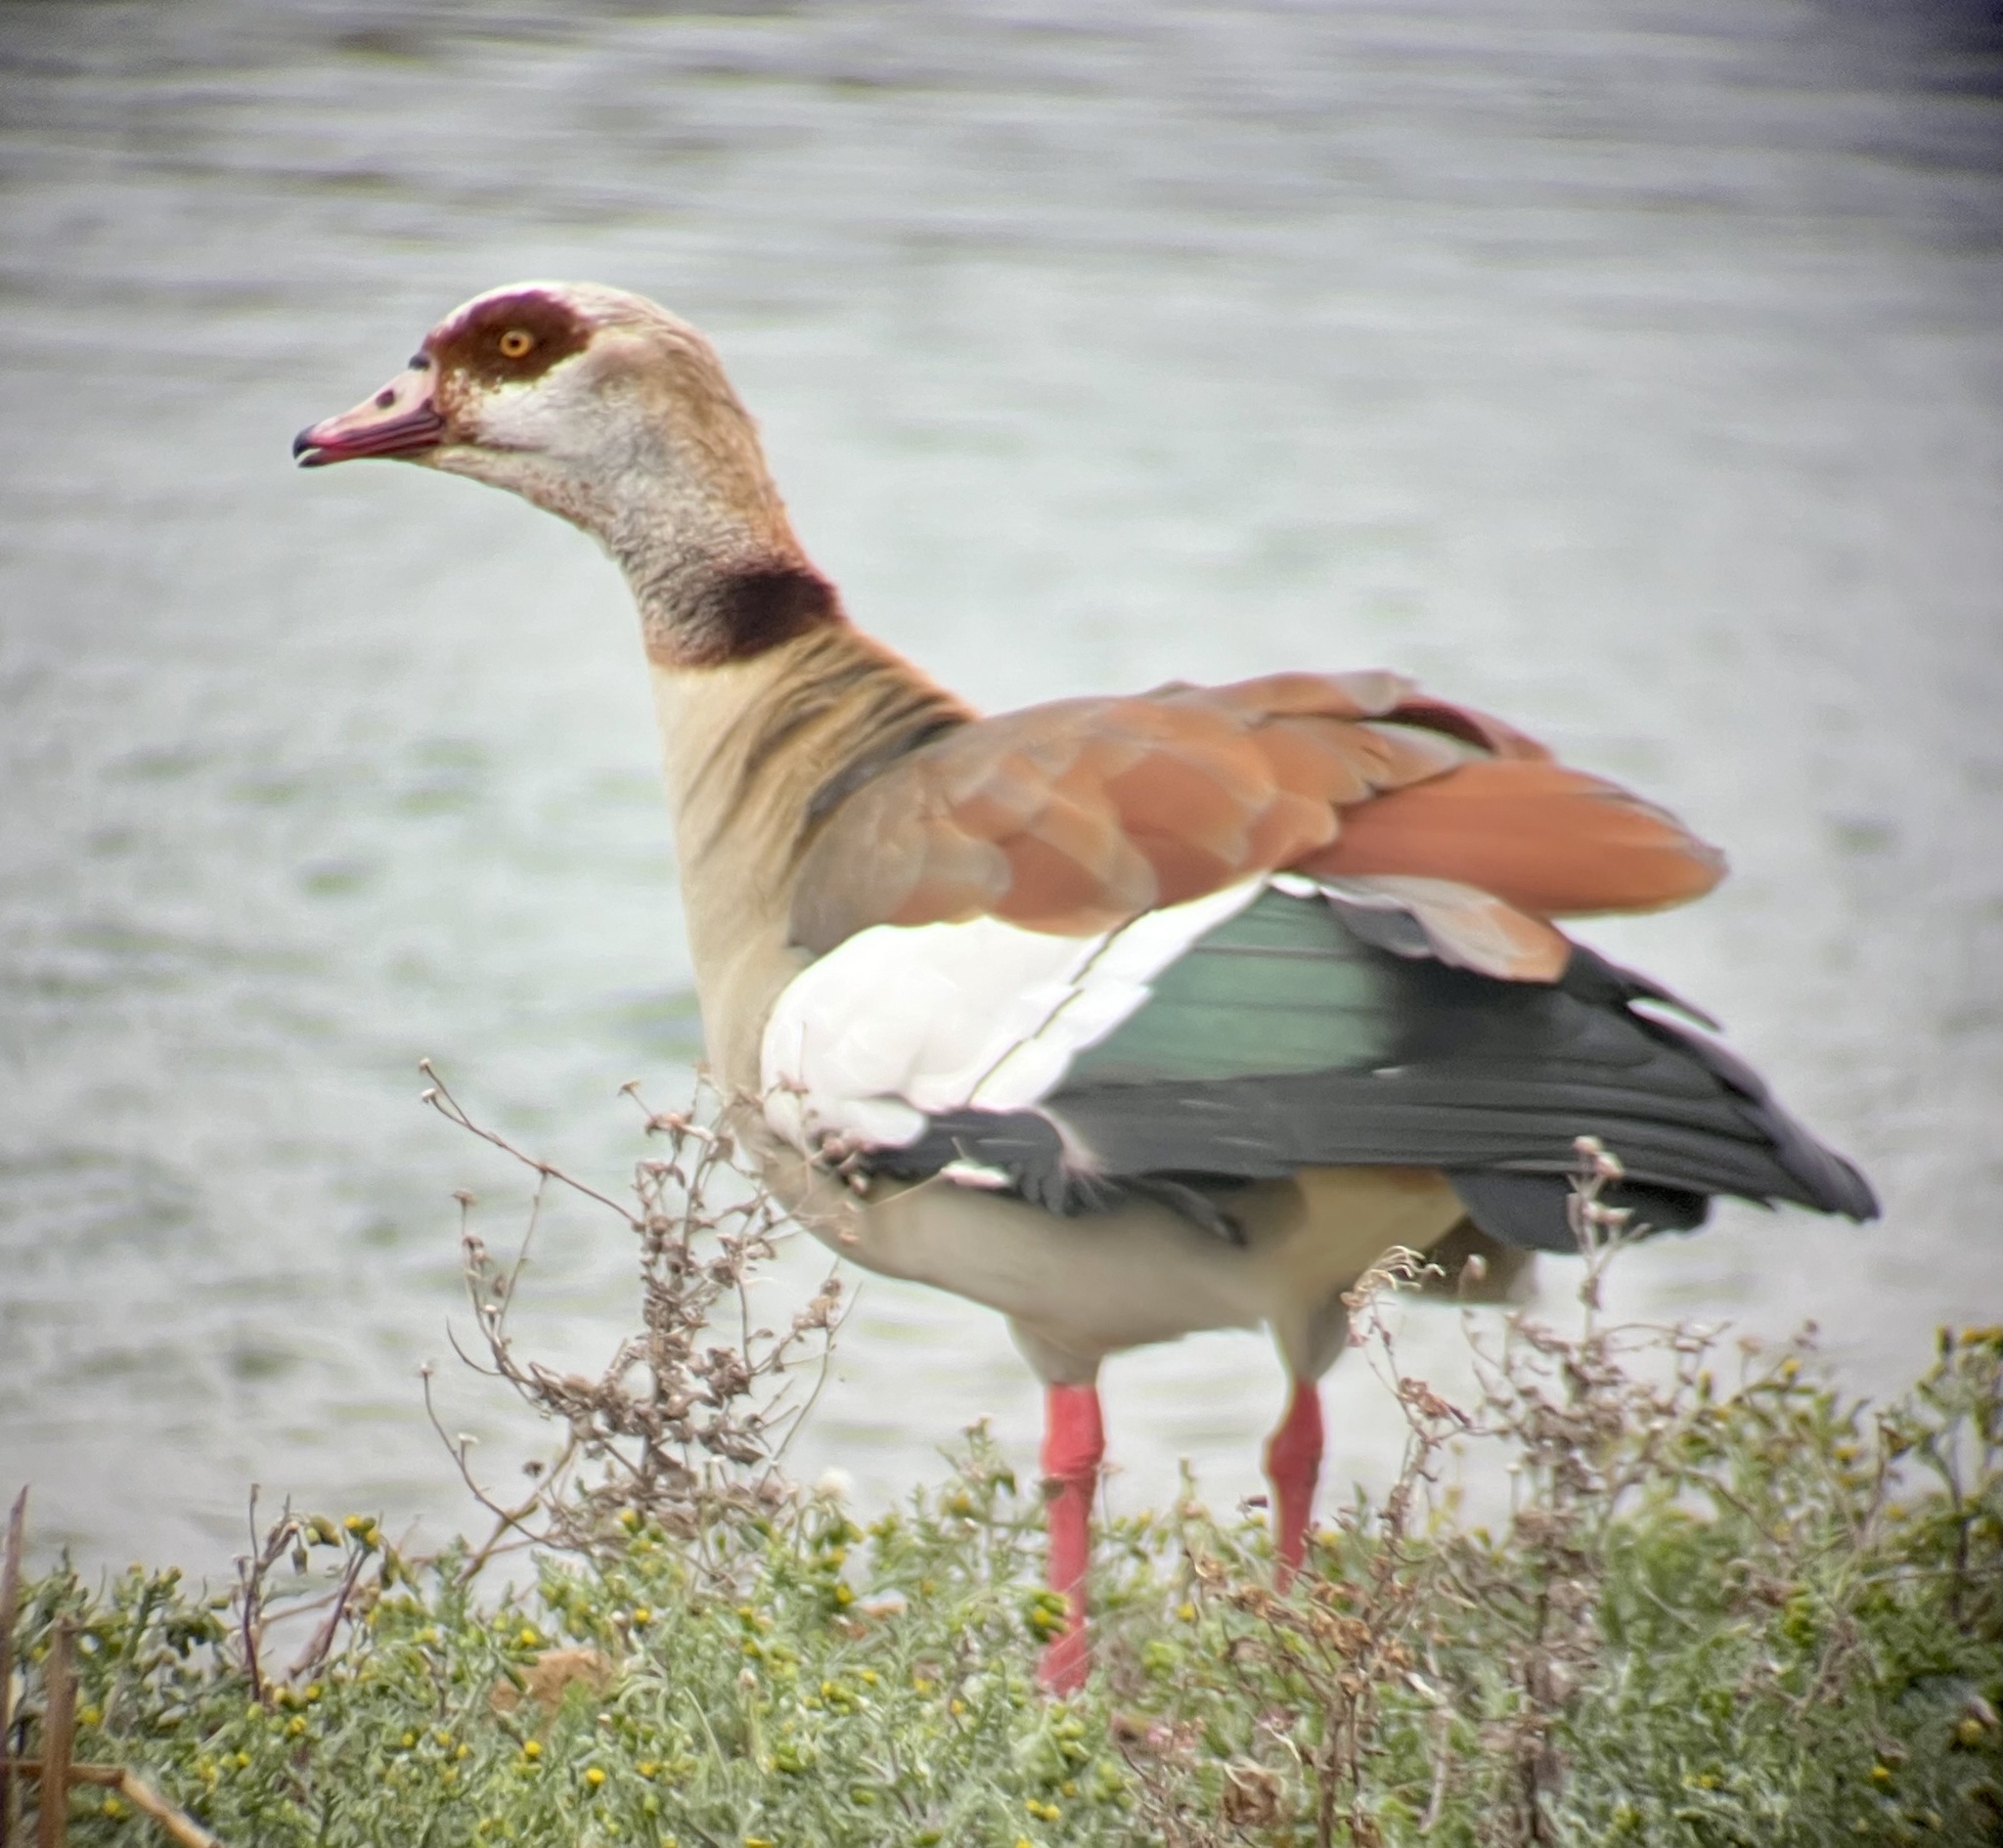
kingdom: Animalia
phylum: Chordata
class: Aves
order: Anseriformes
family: Anatidae
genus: Alopochen
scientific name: Alopochen aegyptiaca
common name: Egyptian goose
